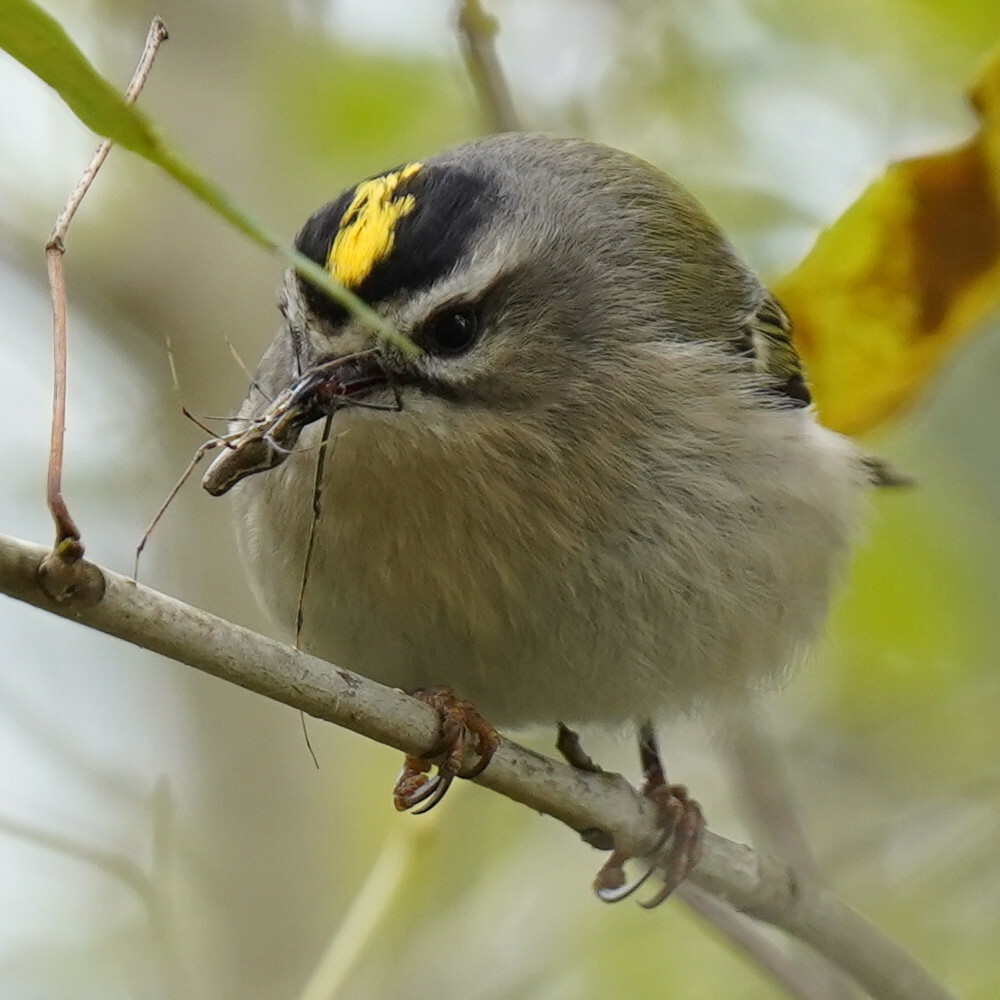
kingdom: Animalia
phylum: Chordata
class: Aves
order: Passeriformes
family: Regulidae
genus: Regulus
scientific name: Regulus satrapa
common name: Golden-crowned kinglet
